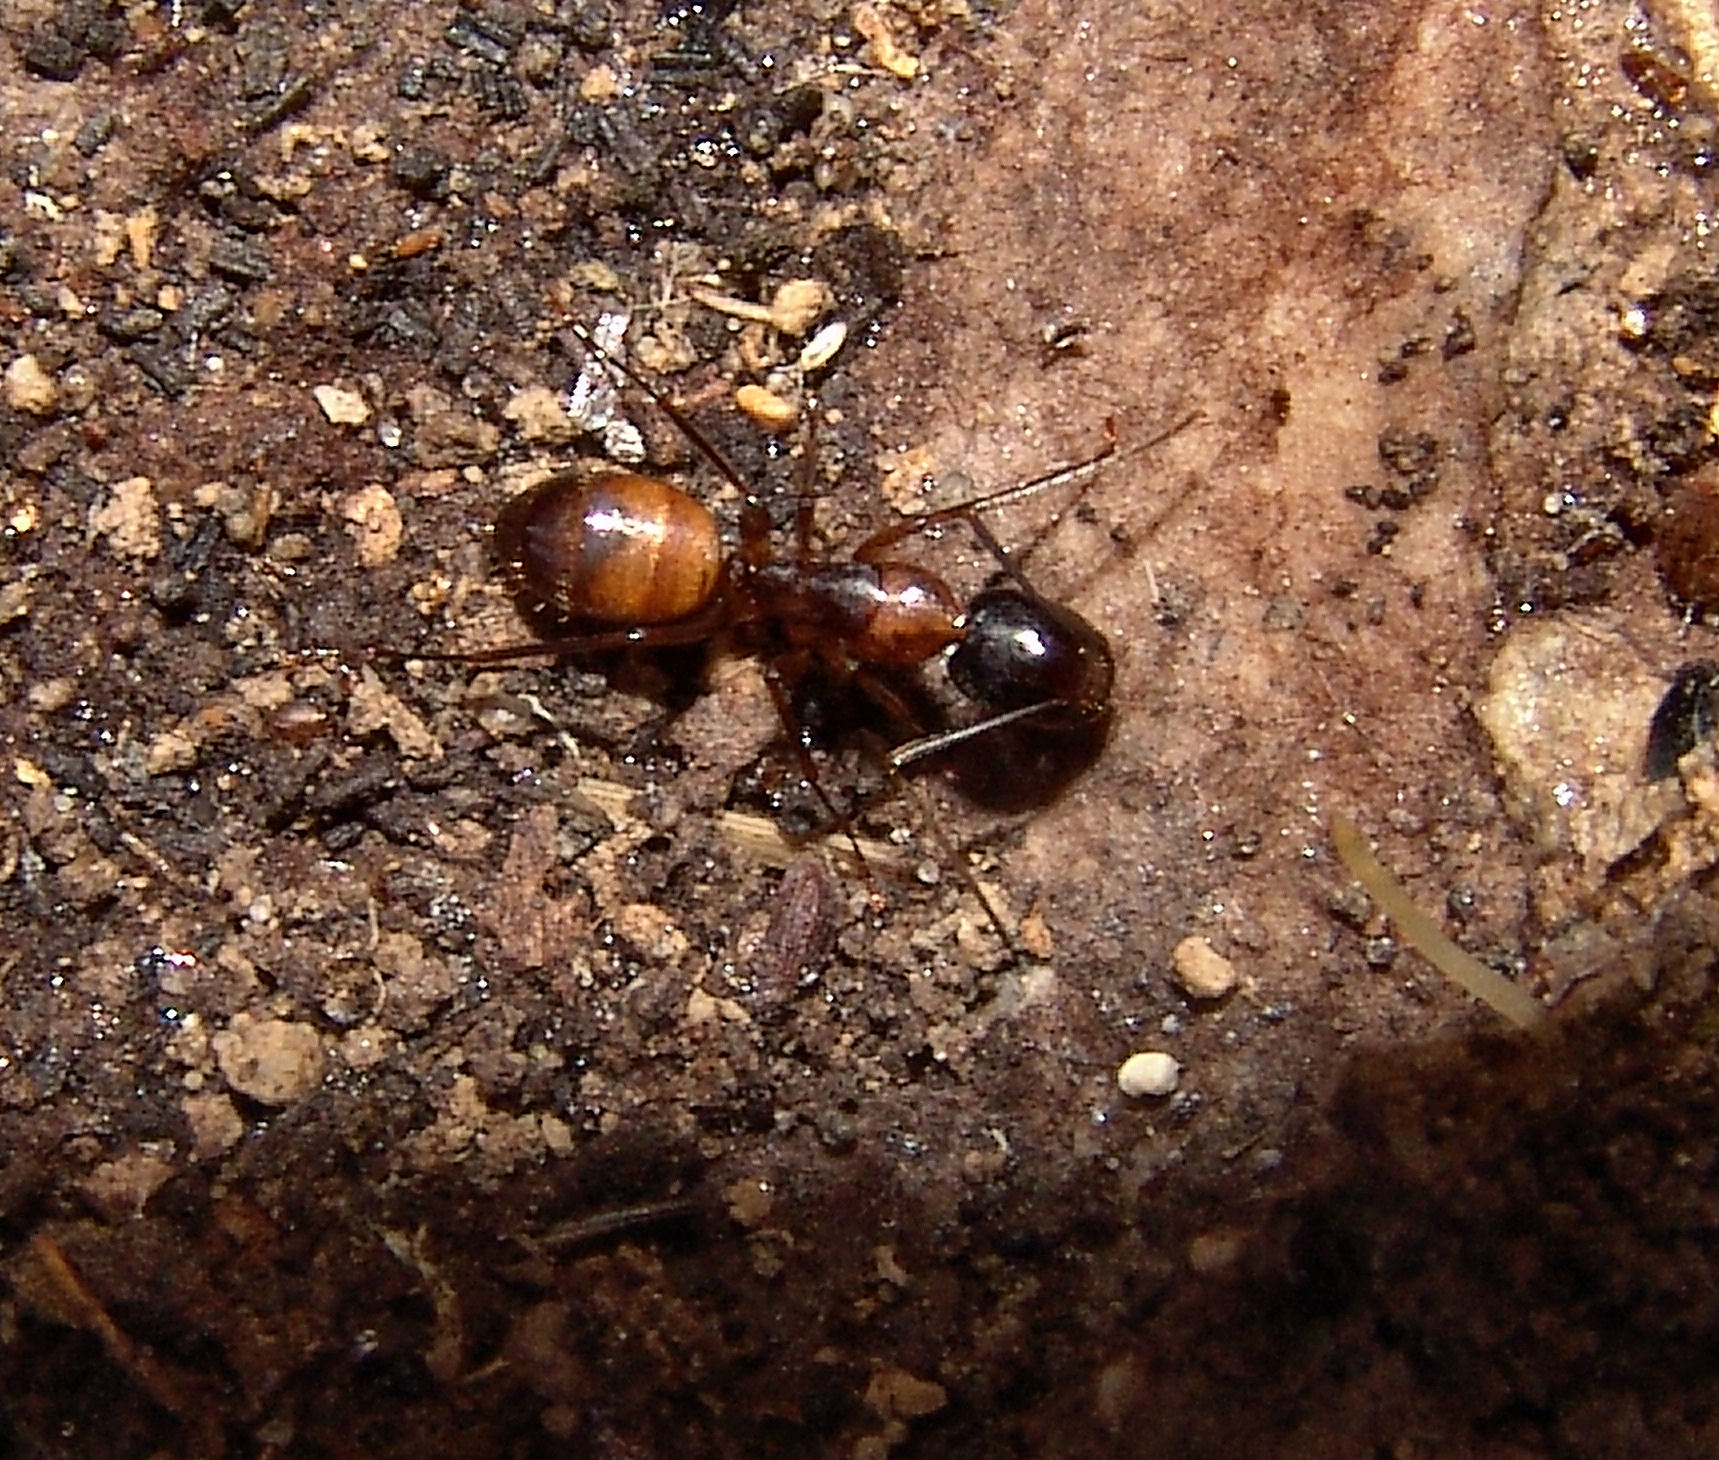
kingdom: Animalia
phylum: Arthropoda
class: Insecta
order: Hymenoptera
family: Formicidae
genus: Camponotus
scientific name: Camponotus americanus
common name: American carpenter ant
